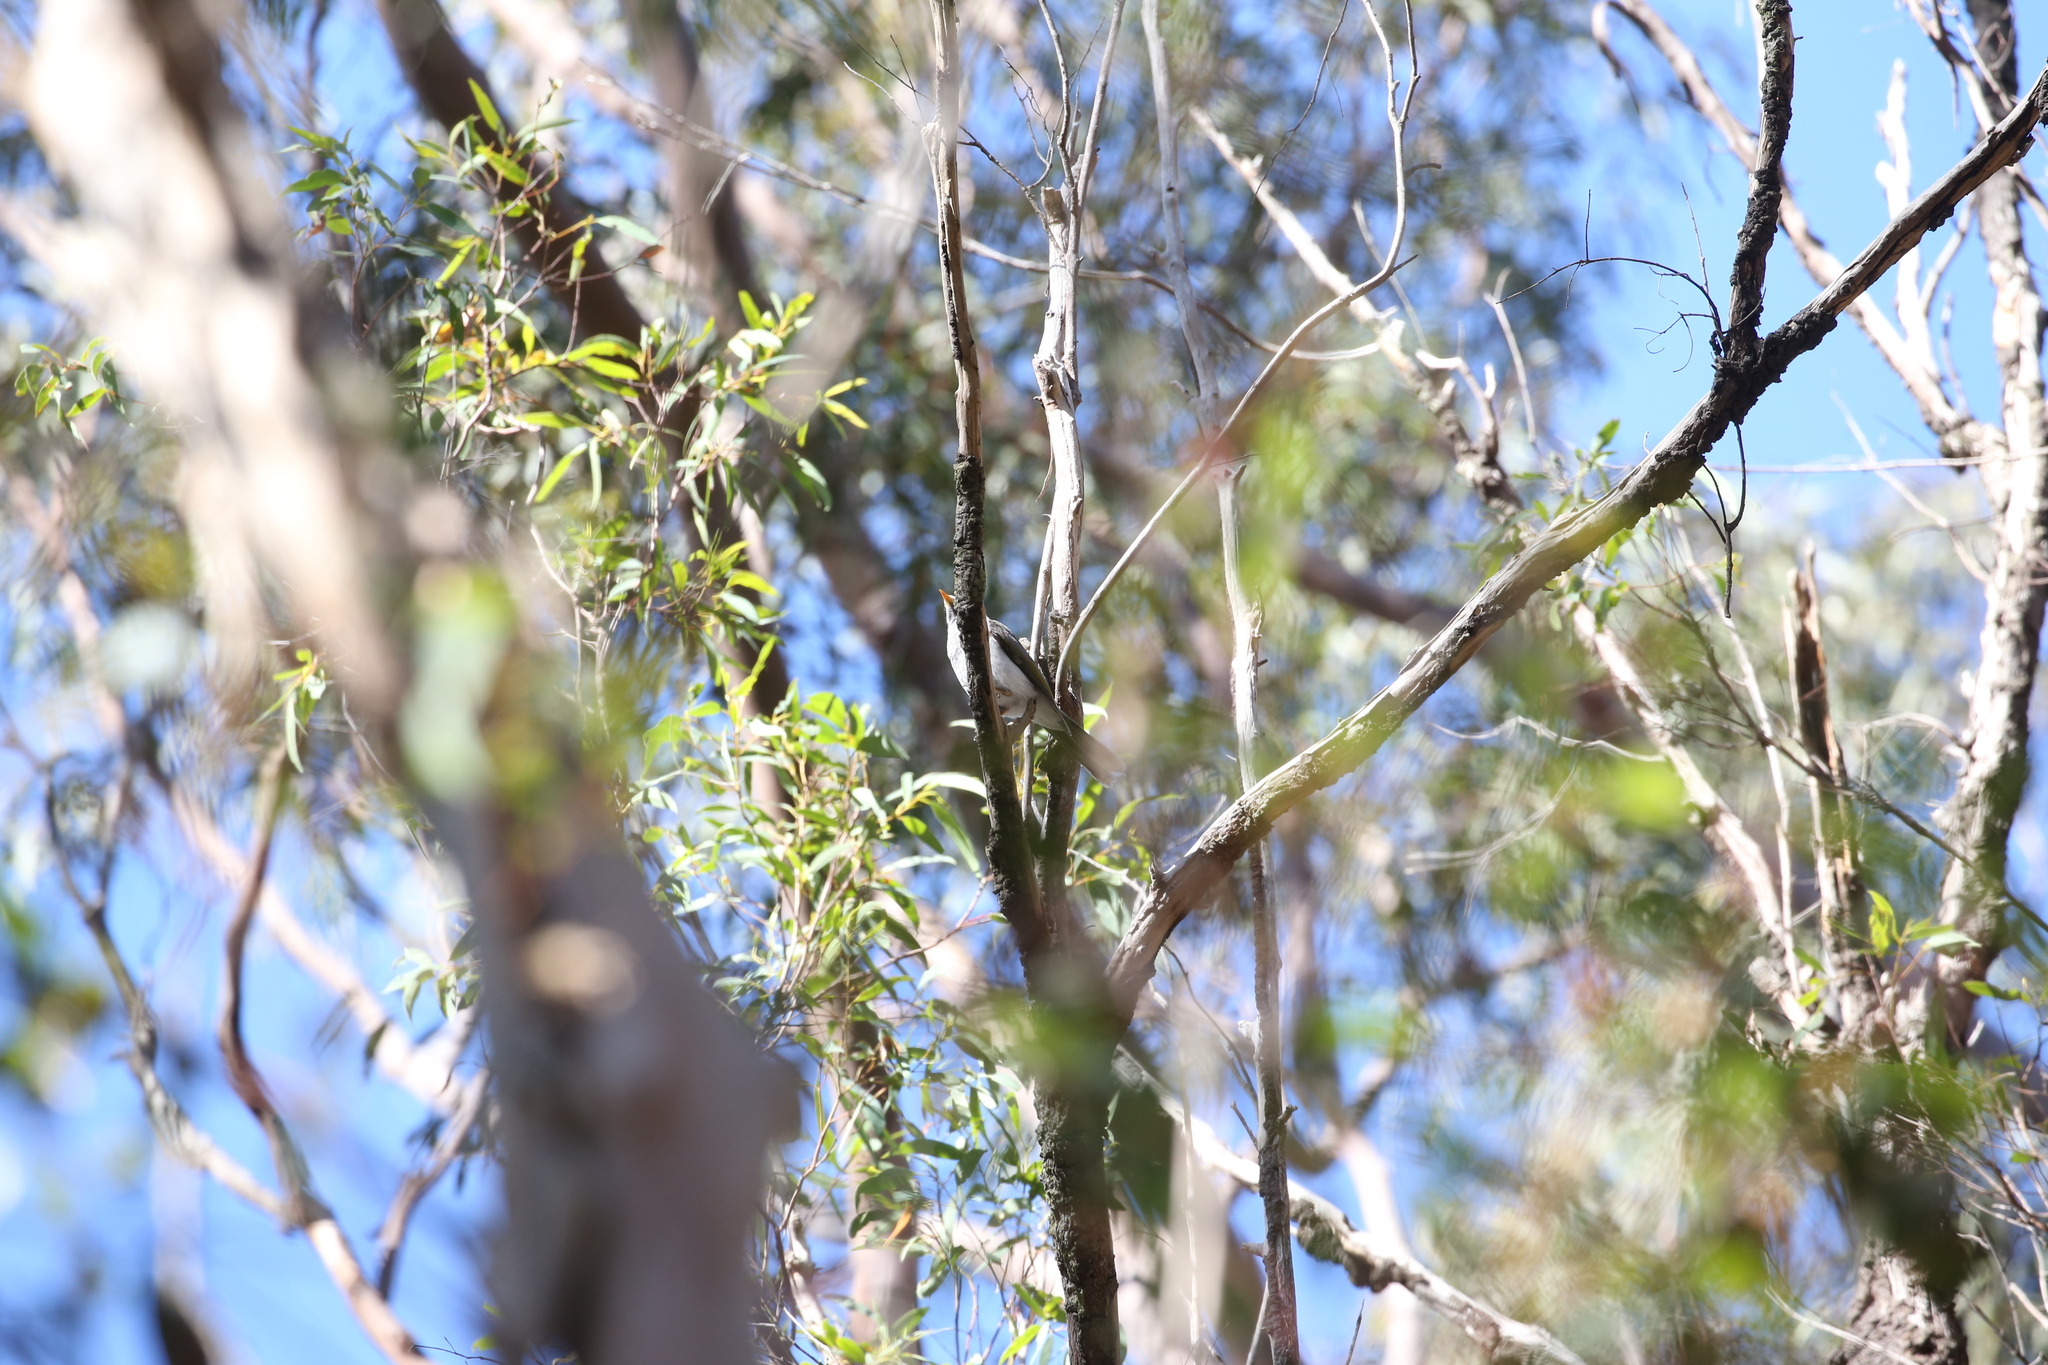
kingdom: Animalia
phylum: Chordata
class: Aves
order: Passeriformes
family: Meliphagidae
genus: Manorina
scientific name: Manorina melanocephala
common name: Noisy miner
